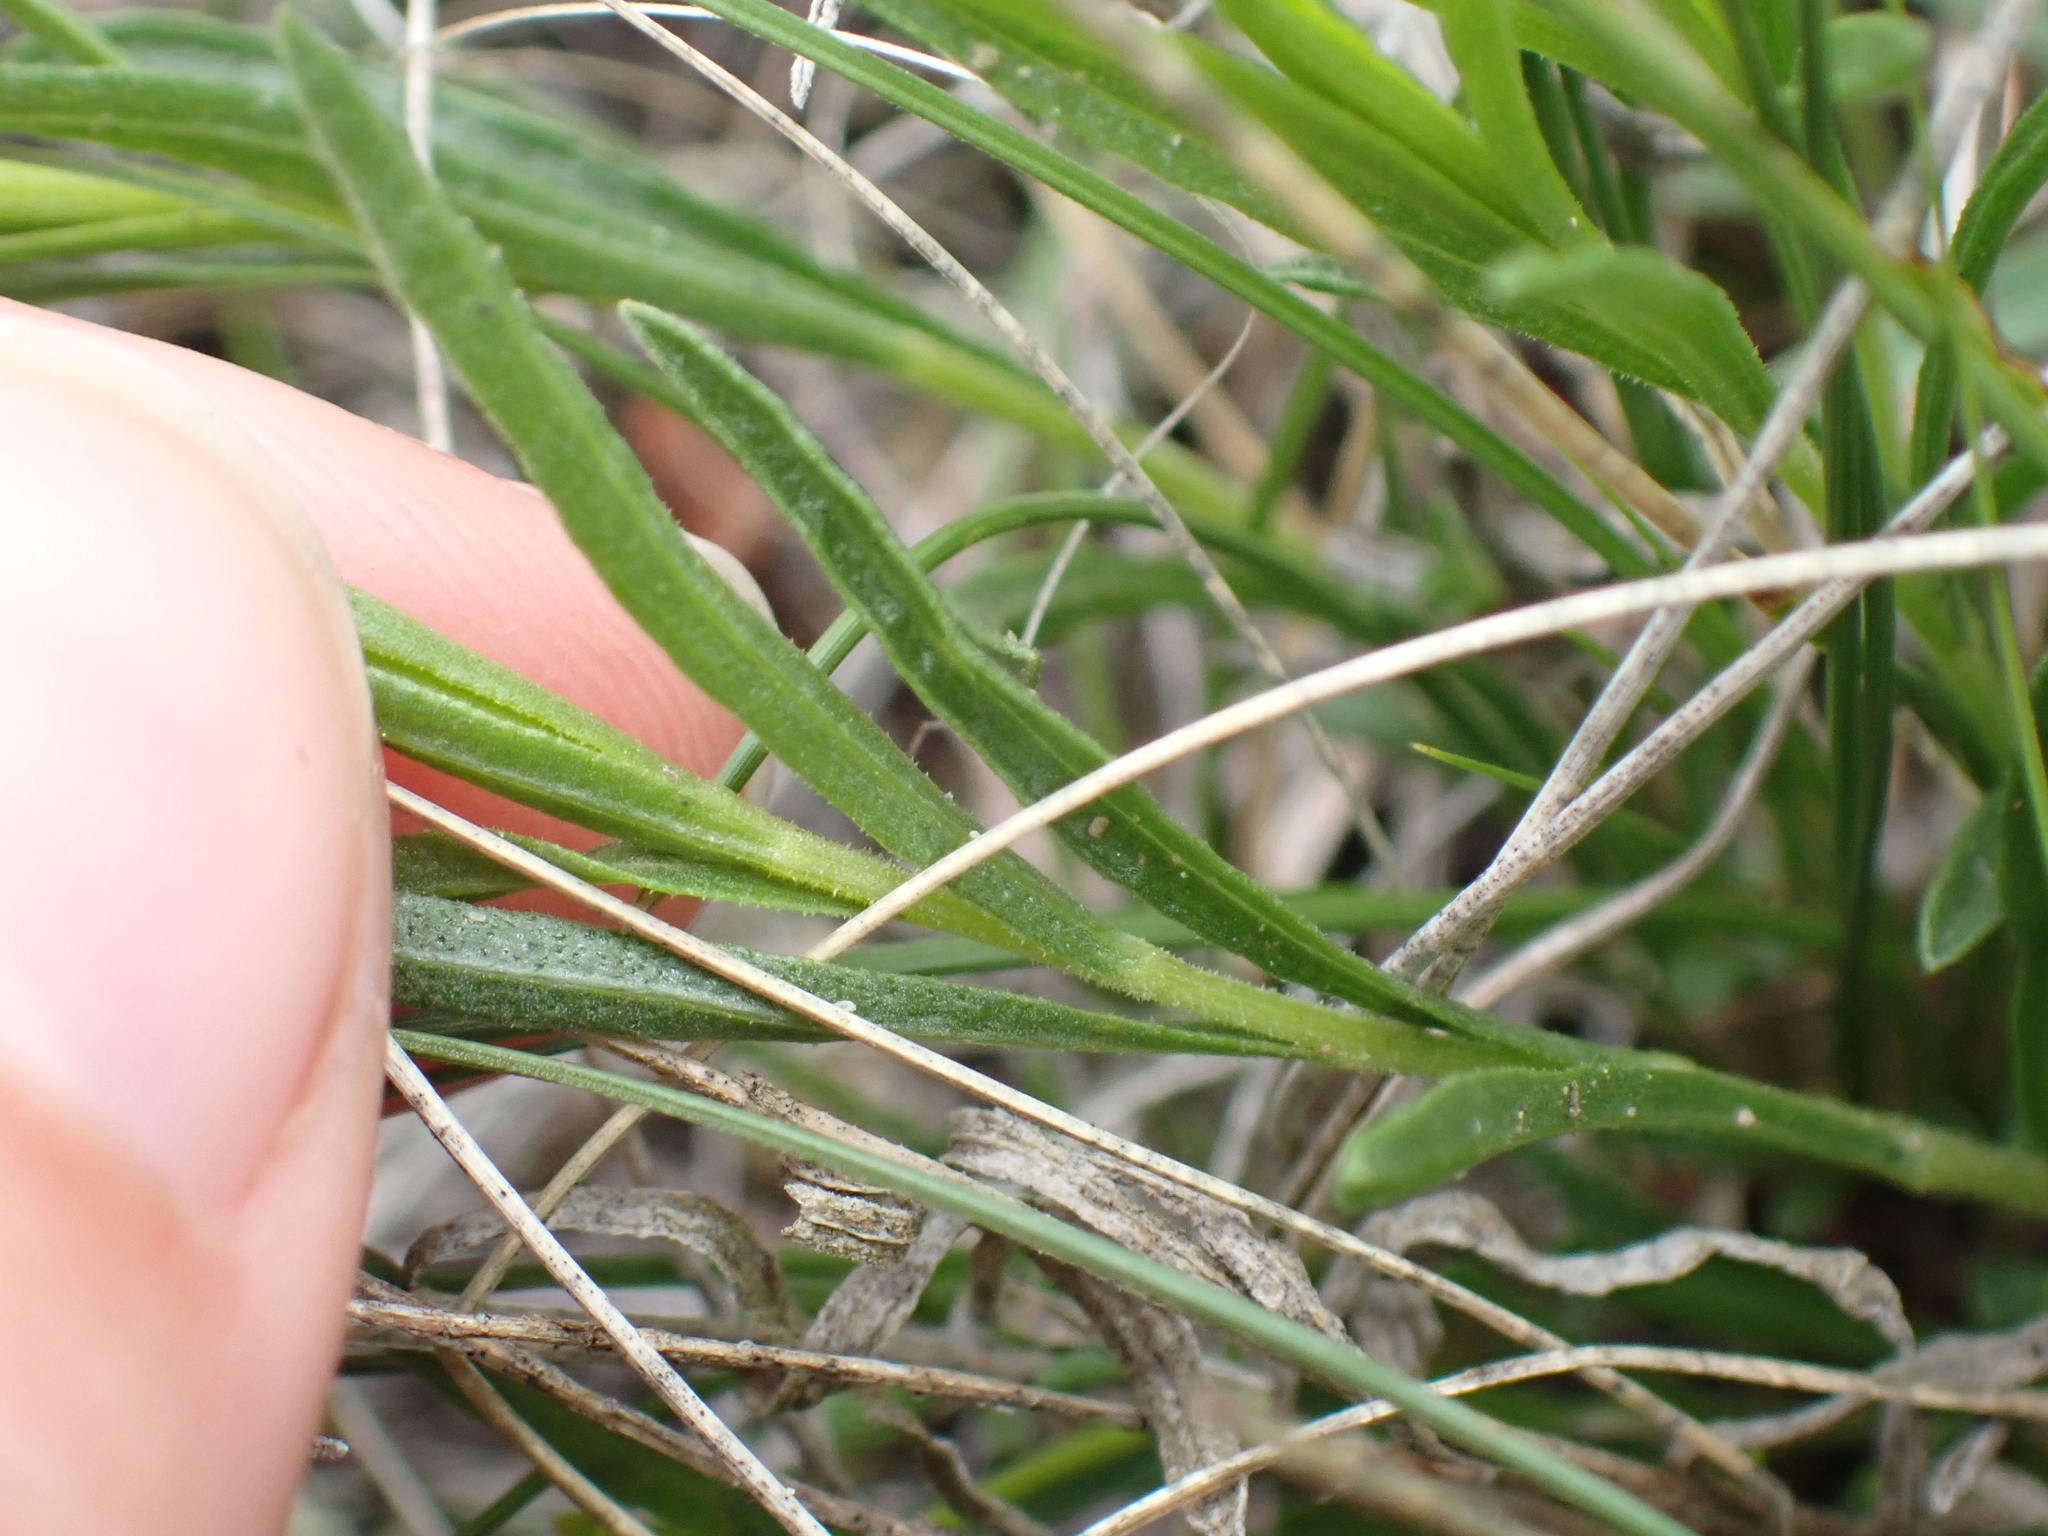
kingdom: Plantae
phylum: Tracheophyta
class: Magnoliopsida
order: Asterales
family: Asteraceae
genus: Gutierrezia
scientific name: Gutierrezia sarothrae
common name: Broom snakeweed
